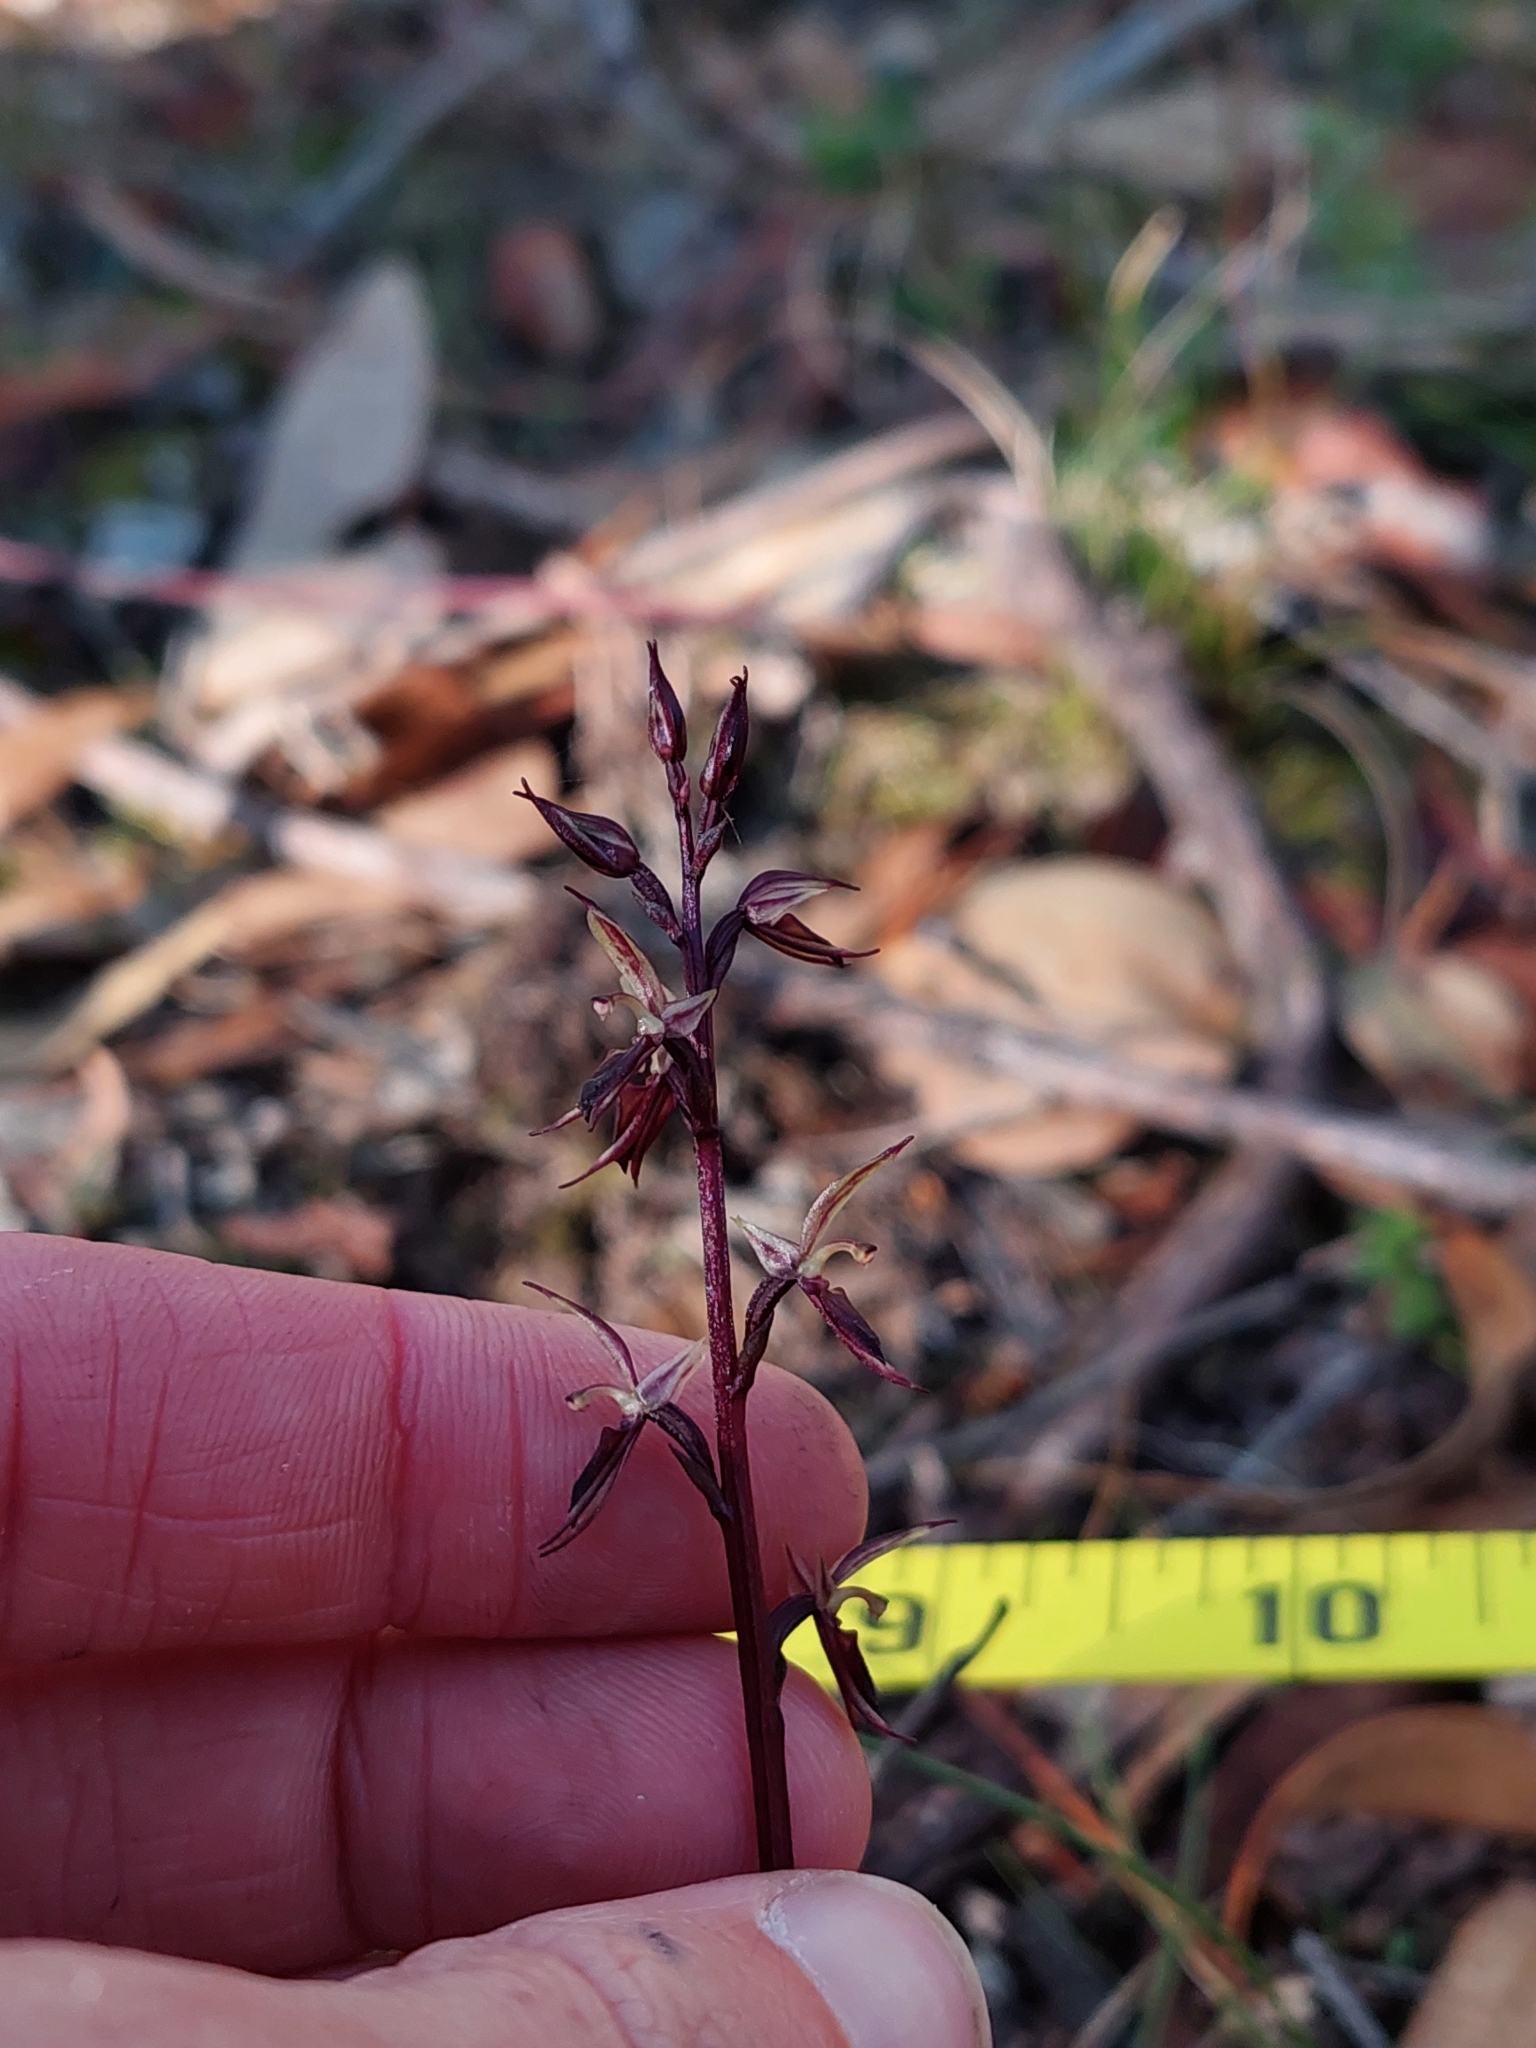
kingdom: Plantae
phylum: Tracheophyta
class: Liliopsida
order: Asparagales
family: Orchidaceae
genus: Acianthus
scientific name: Acianthus pusillus
